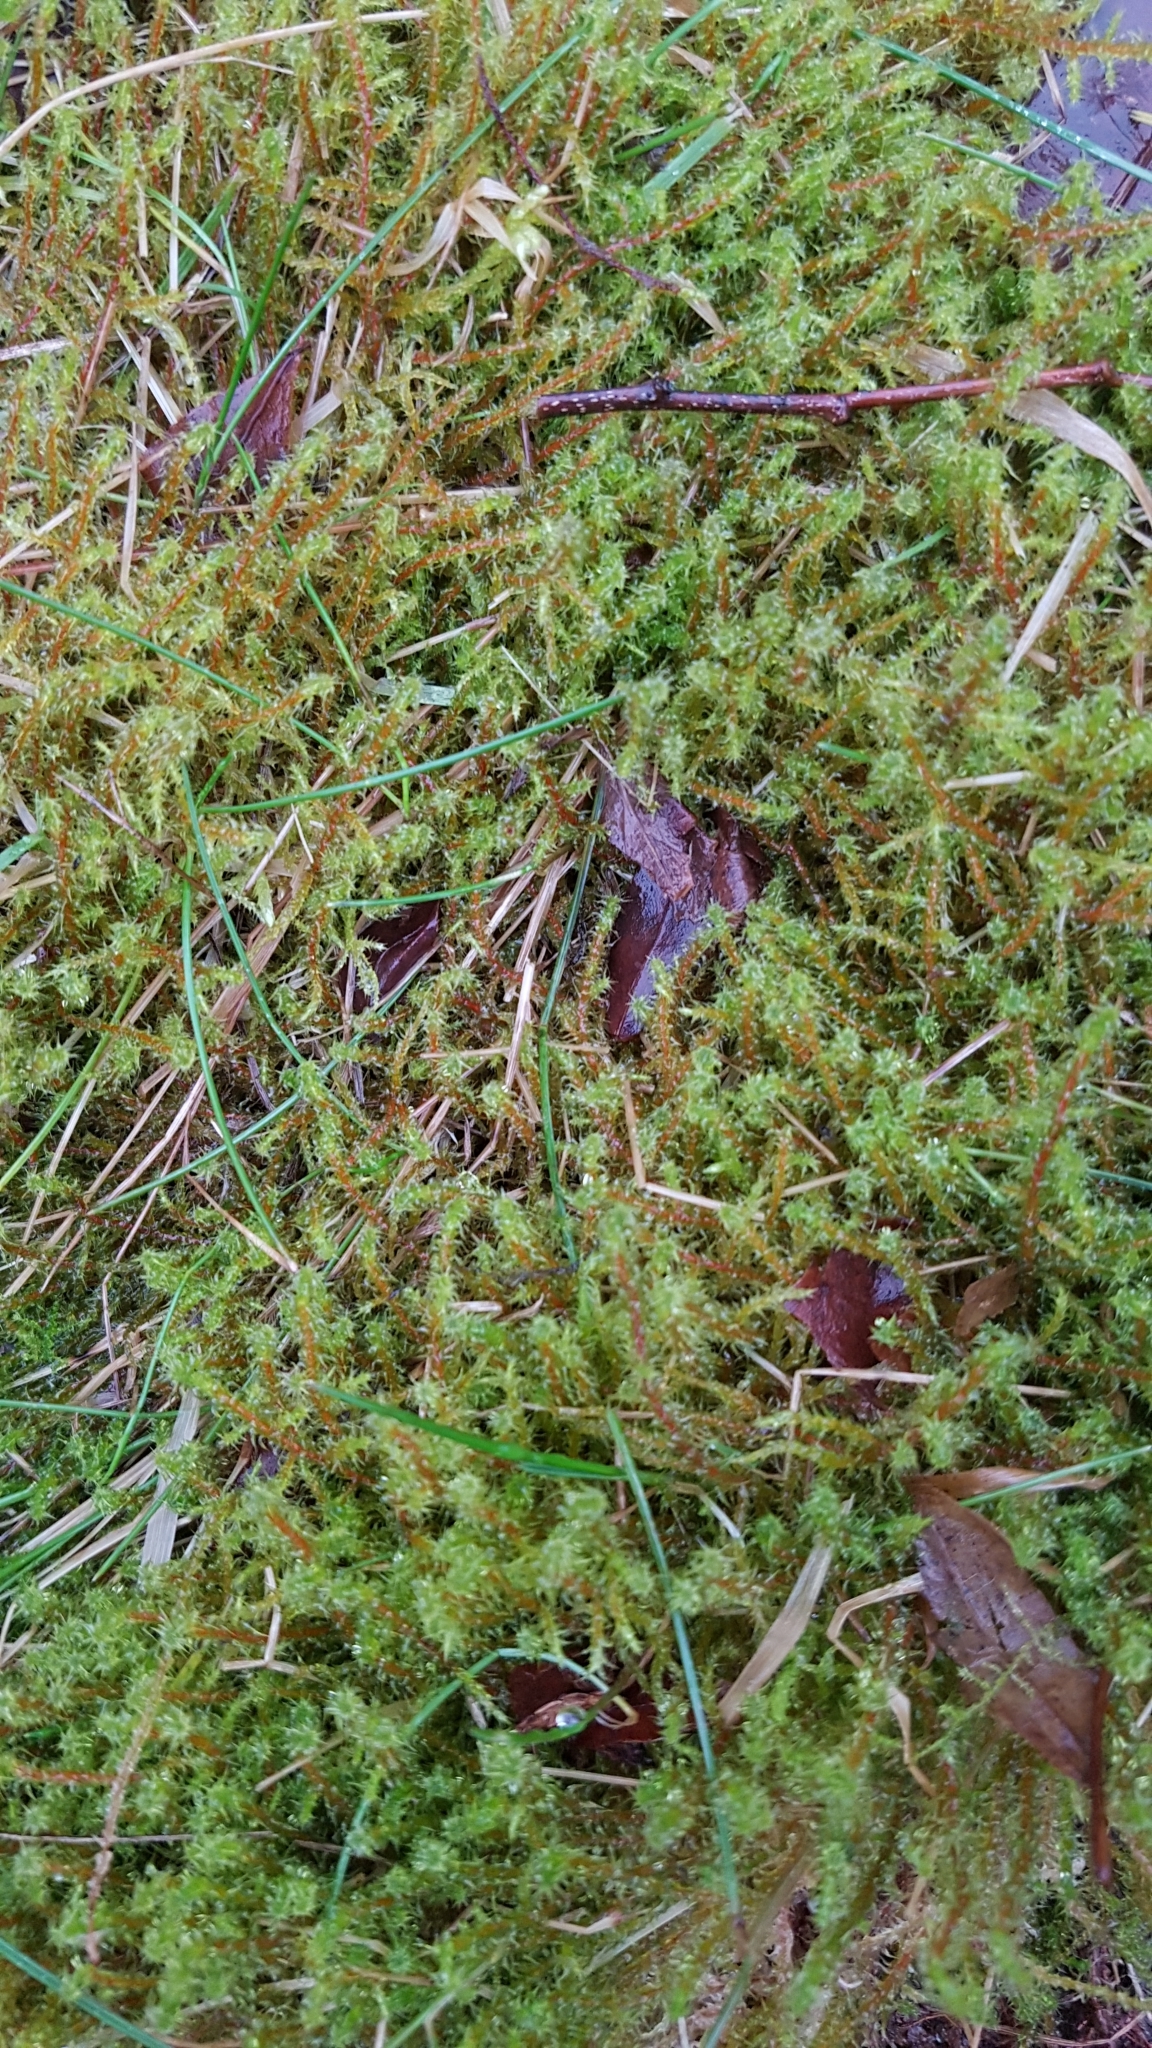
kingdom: Plantae
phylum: Bryophyta
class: Bryopsida
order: Hypnales
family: Hylocomiaceae
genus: Rhytidiadelphus
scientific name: Rhytidiadelphus squarrosus
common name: Springy turf-moss
